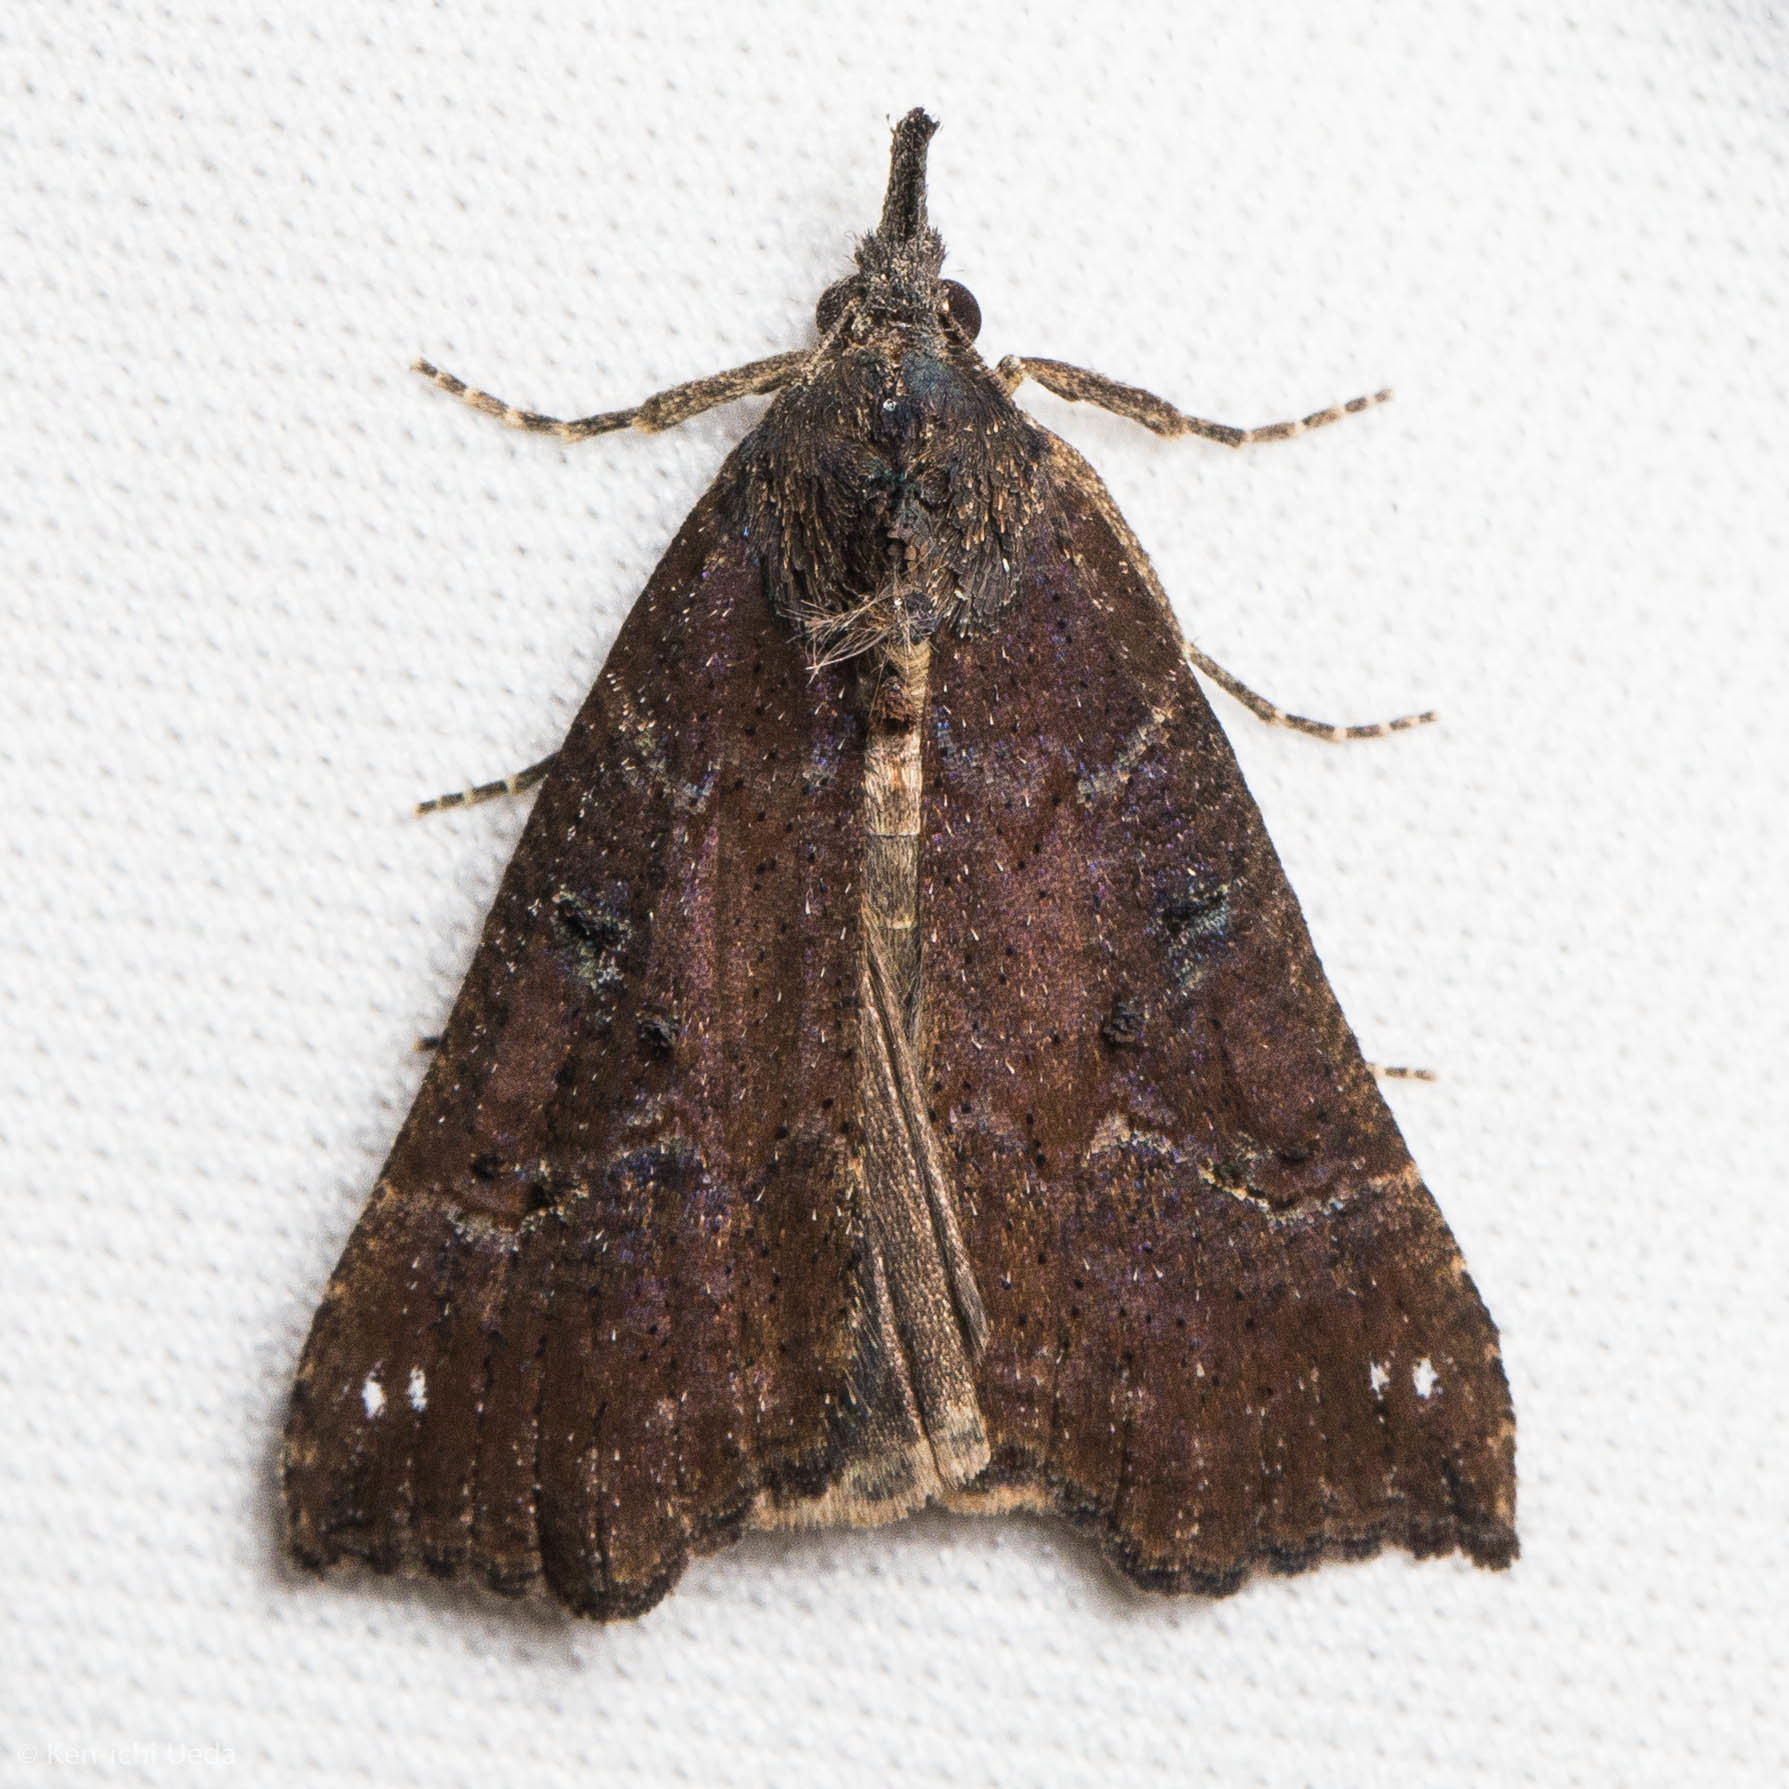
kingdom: Animalia
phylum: Arthropoda
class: Insecta
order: Lepidoptera
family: Erebidae
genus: Hypena
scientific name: Hypena decorata
